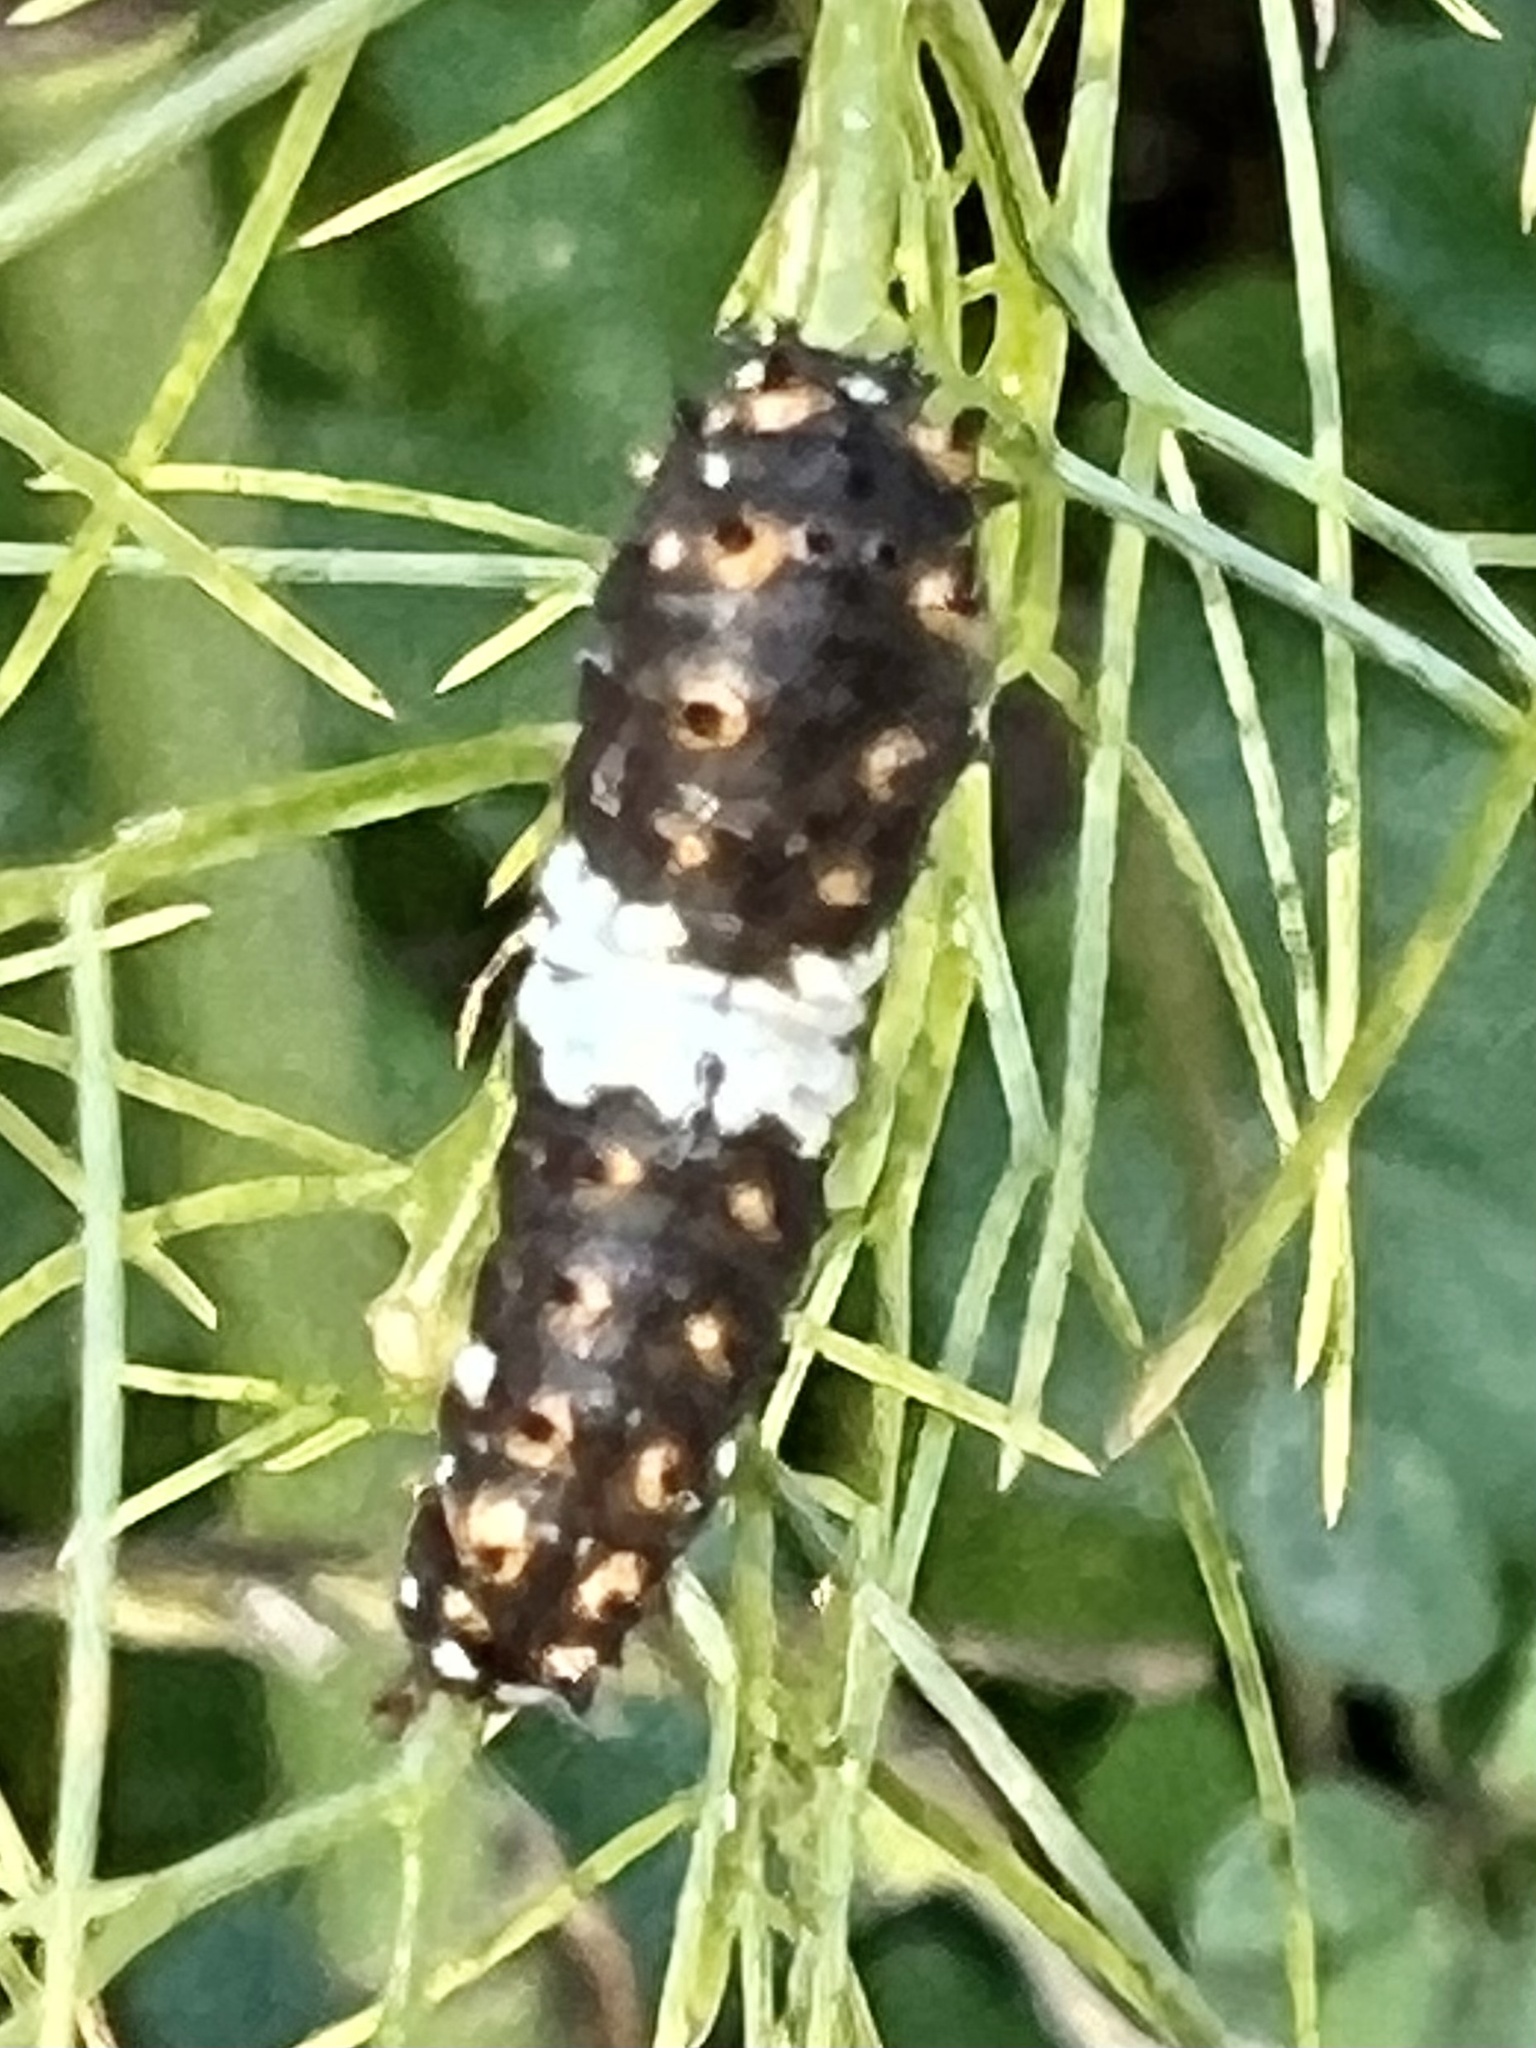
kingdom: Animalia
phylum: Arthropoda
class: Insecta
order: Lepidoptera
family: Papilionidae
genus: Papilio
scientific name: Papilio polyxenes
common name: Black swallowtail
